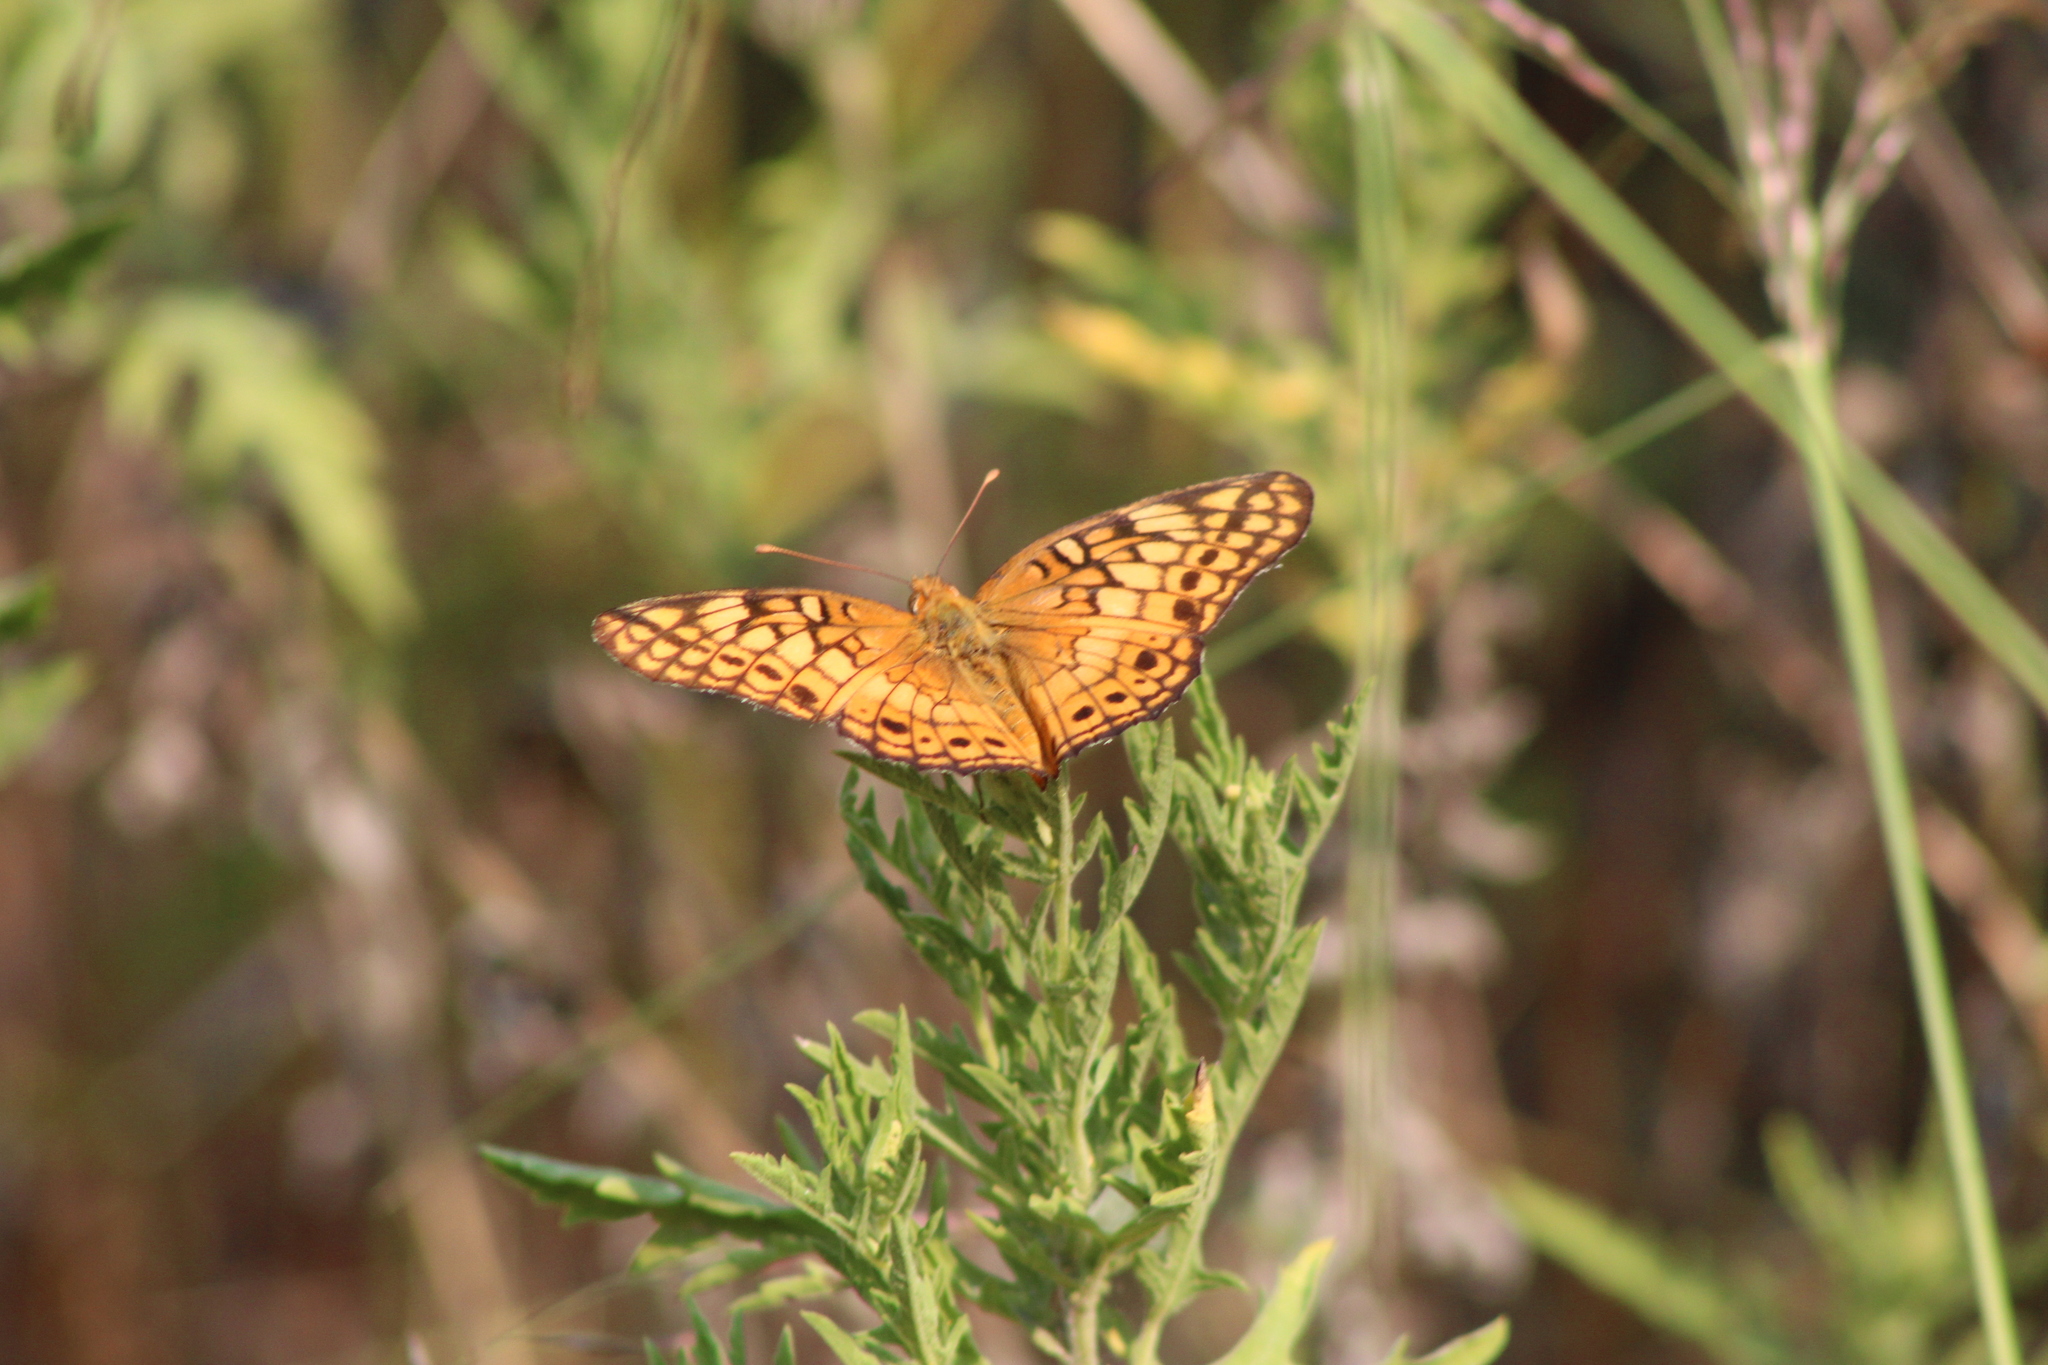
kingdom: Animalia
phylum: Arthropoda
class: Insecta
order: Lepidoptera
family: Nymphalidae
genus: Euptoieta
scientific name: Euptoieta claudia
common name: Variegated fritillary
